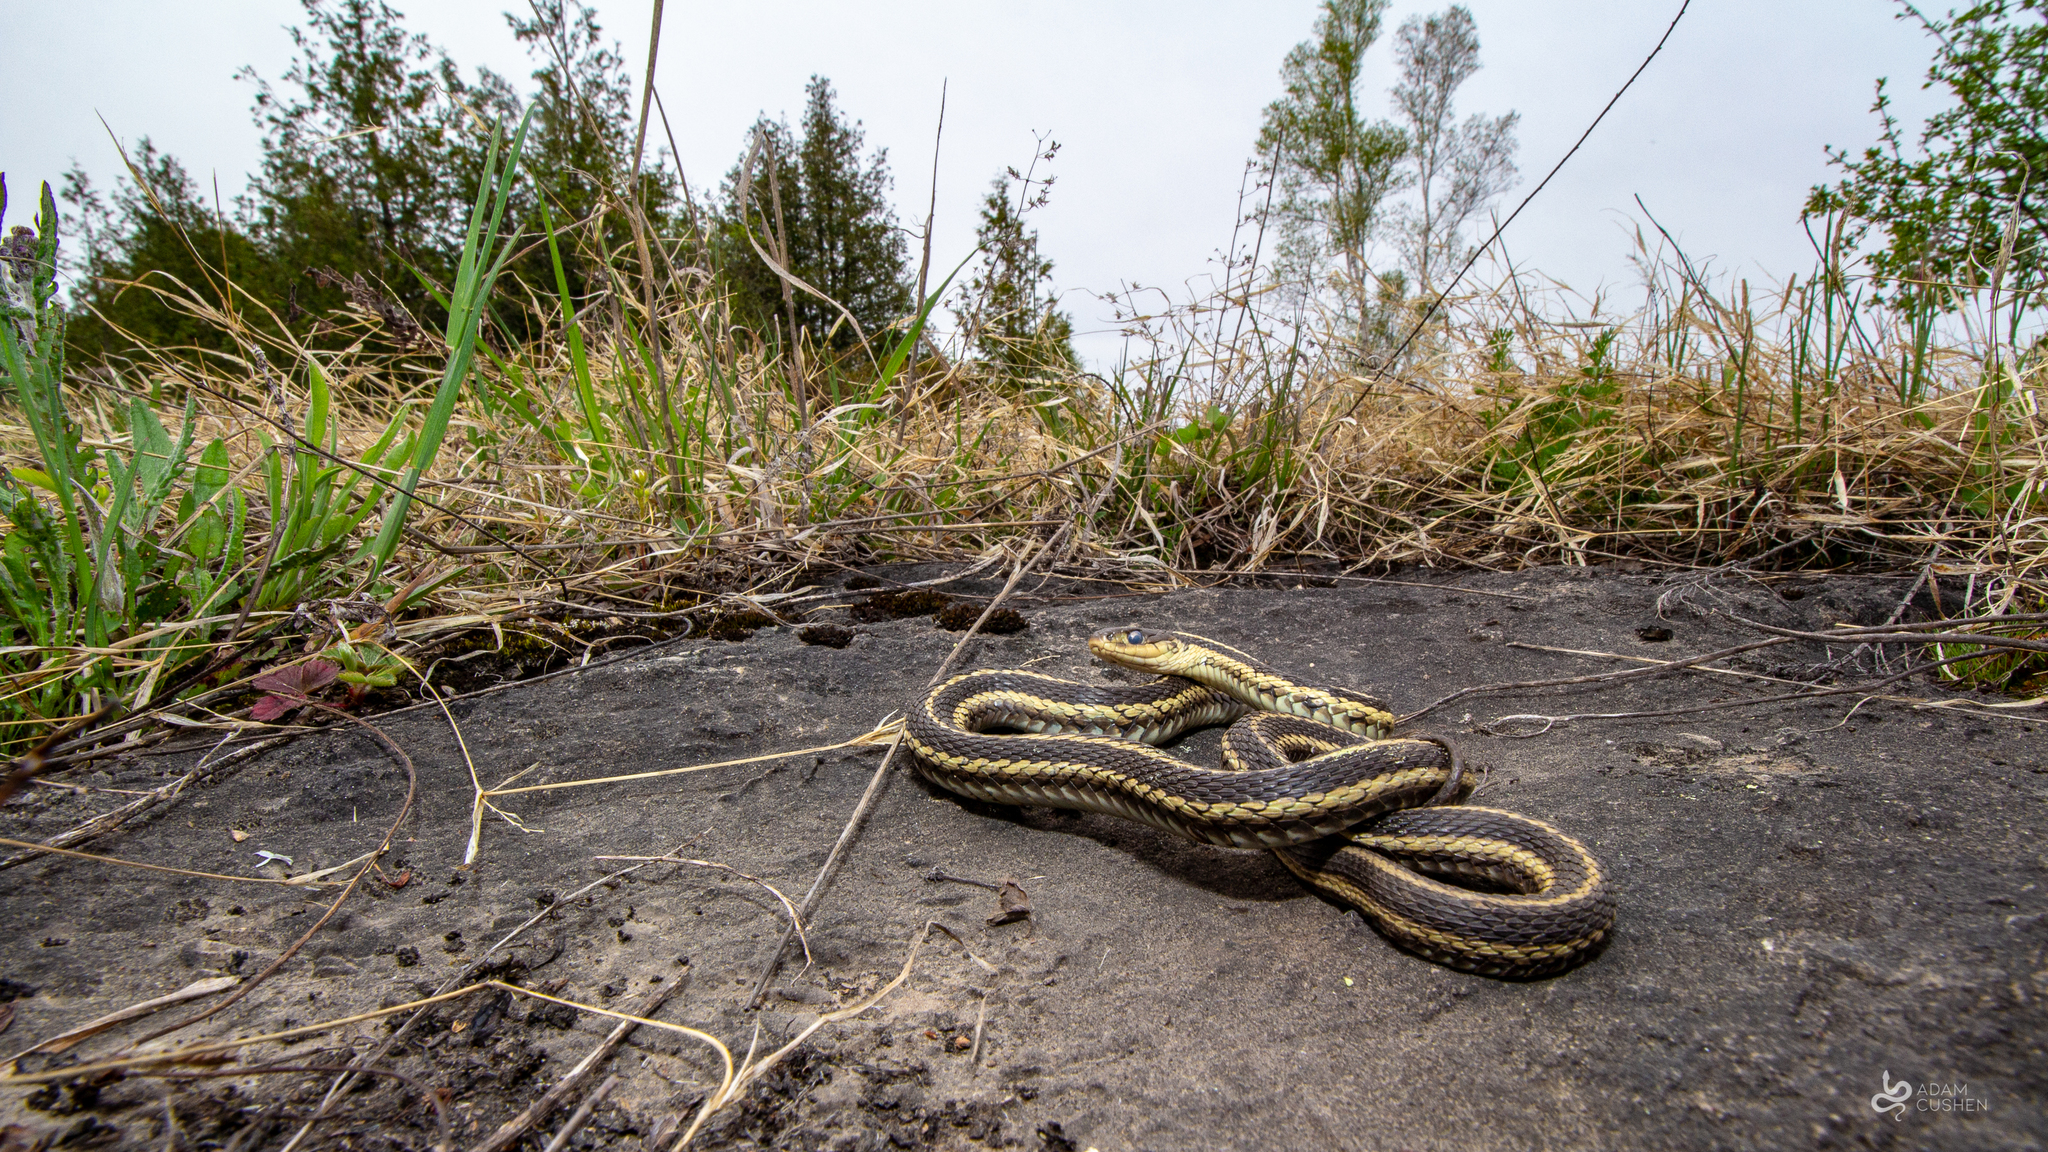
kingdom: Animalia
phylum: Chordata
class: Squamata
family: Colubridae
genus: Thamnophis
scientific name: Thamnophis sirtalis
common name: Common garter snake
